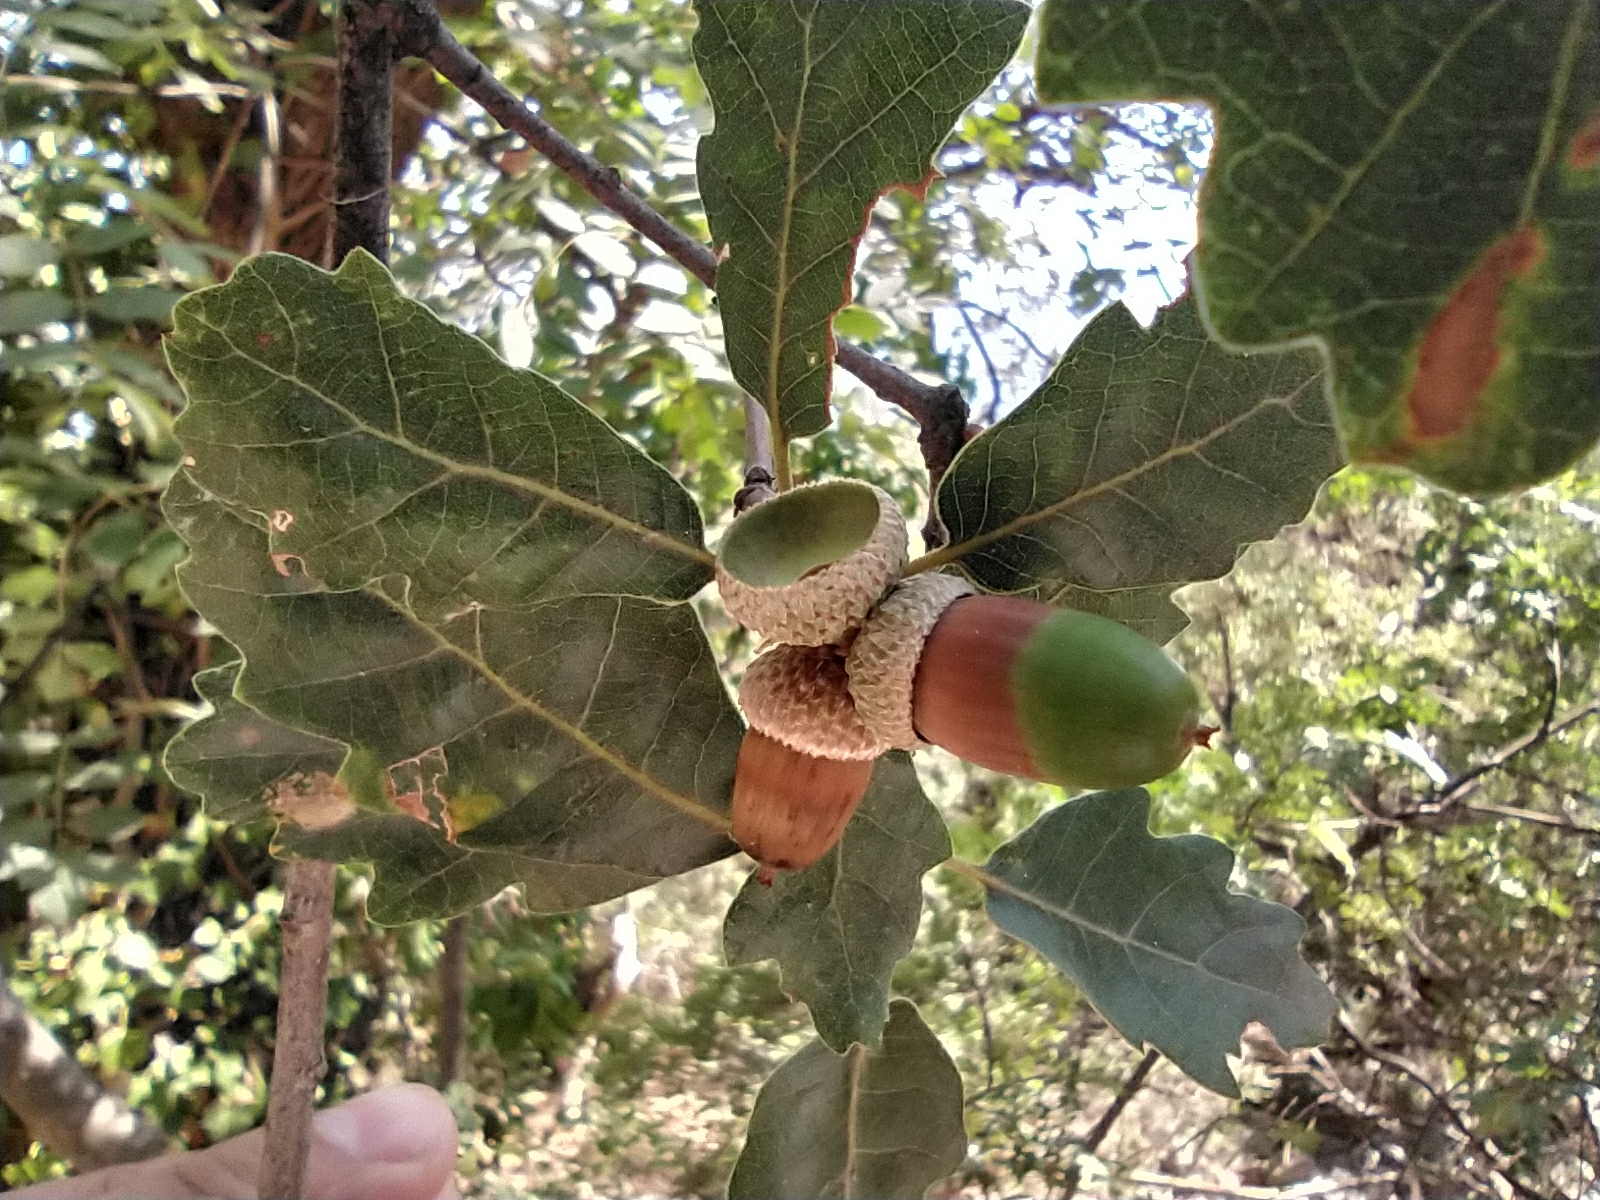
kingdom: Plantae
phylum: Tracheophyta
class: Magnoliopsida
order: Fagales
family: Fagaceae
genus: Quercus
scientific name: Quercus pubescens
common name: Downy oak
